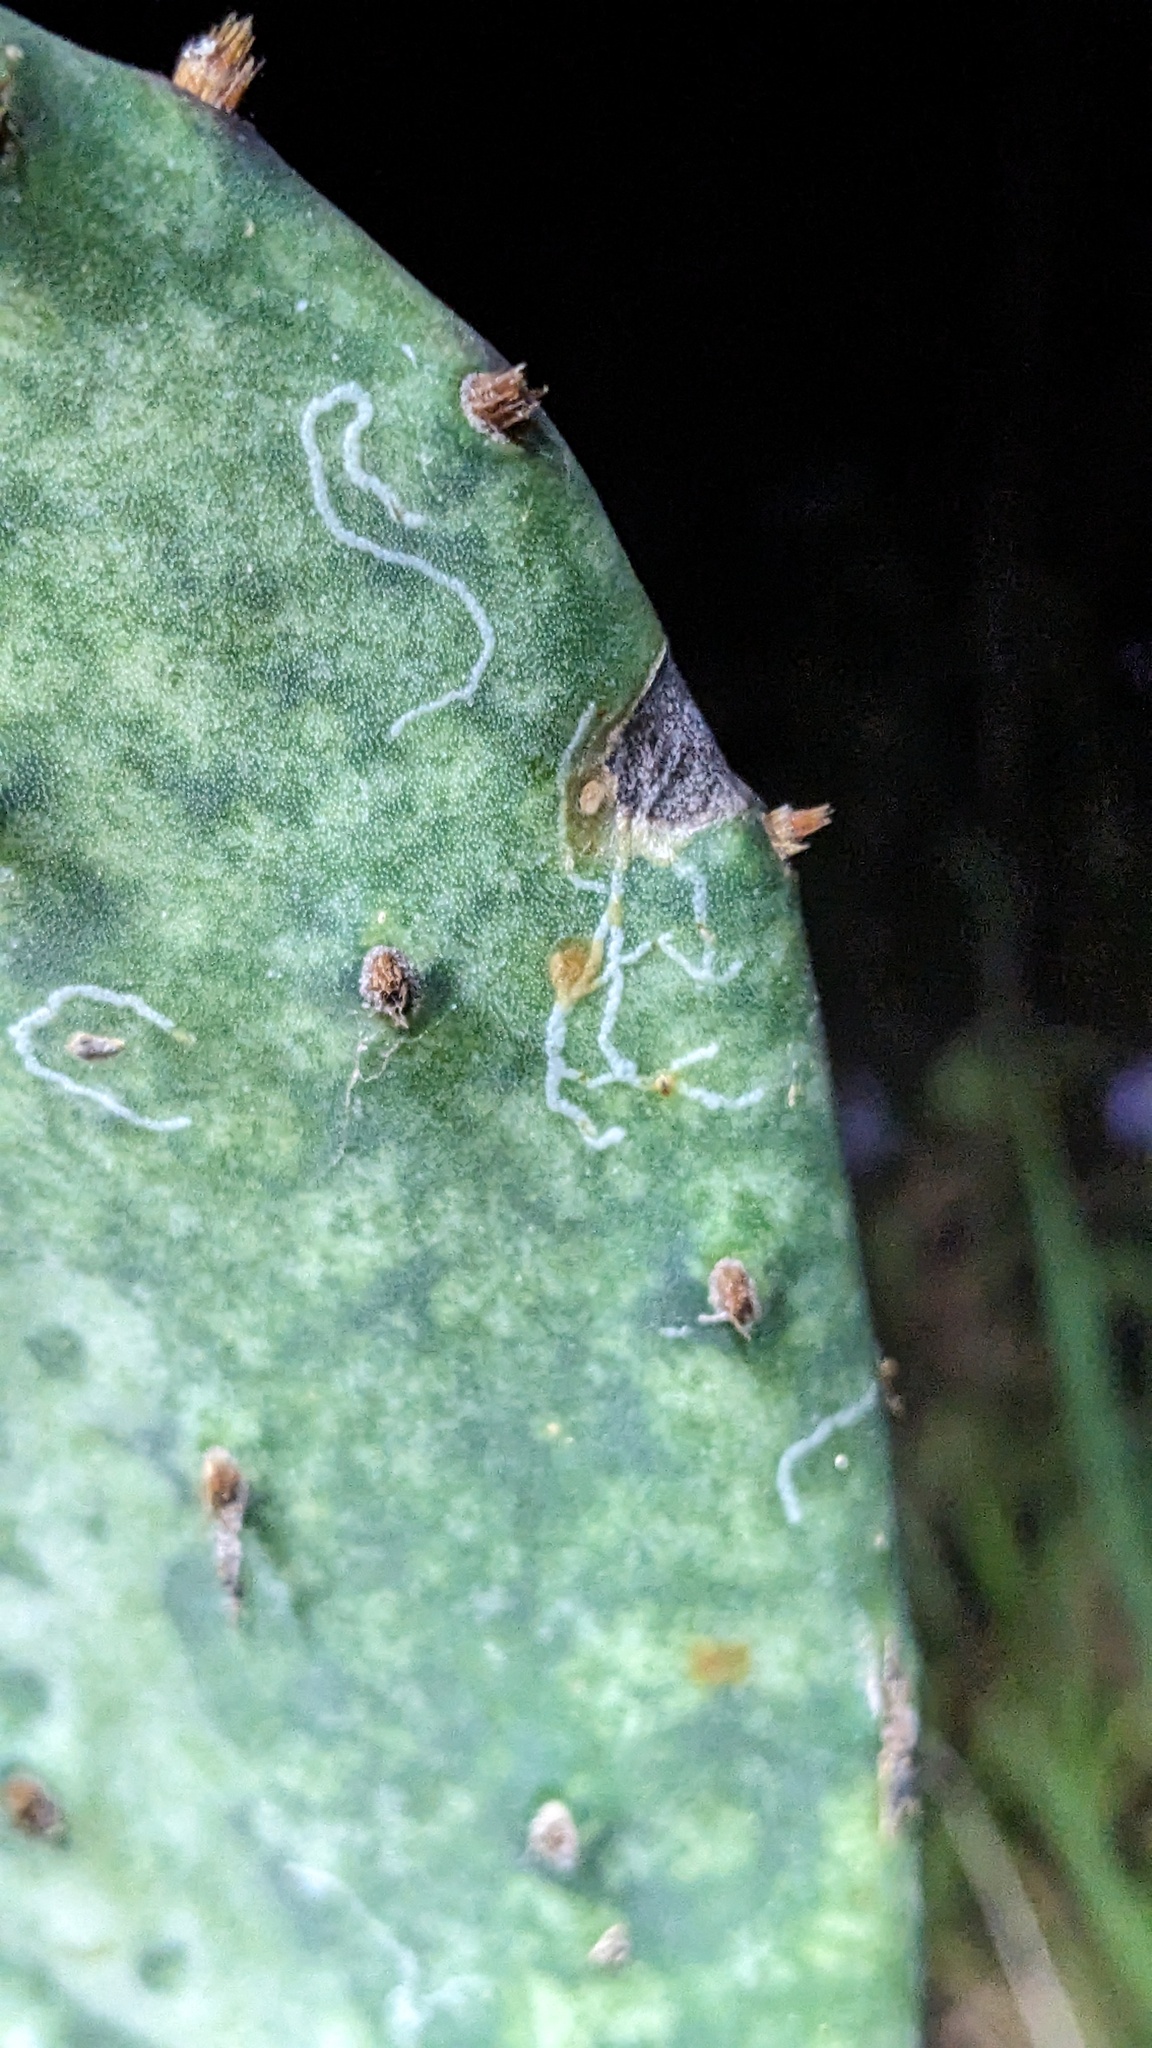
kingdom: Animalia
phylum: Arthropoda
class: Insecta
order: Lepidoptera
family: Gracillariidae
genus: Marmara
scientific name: Marmara opuntiella
